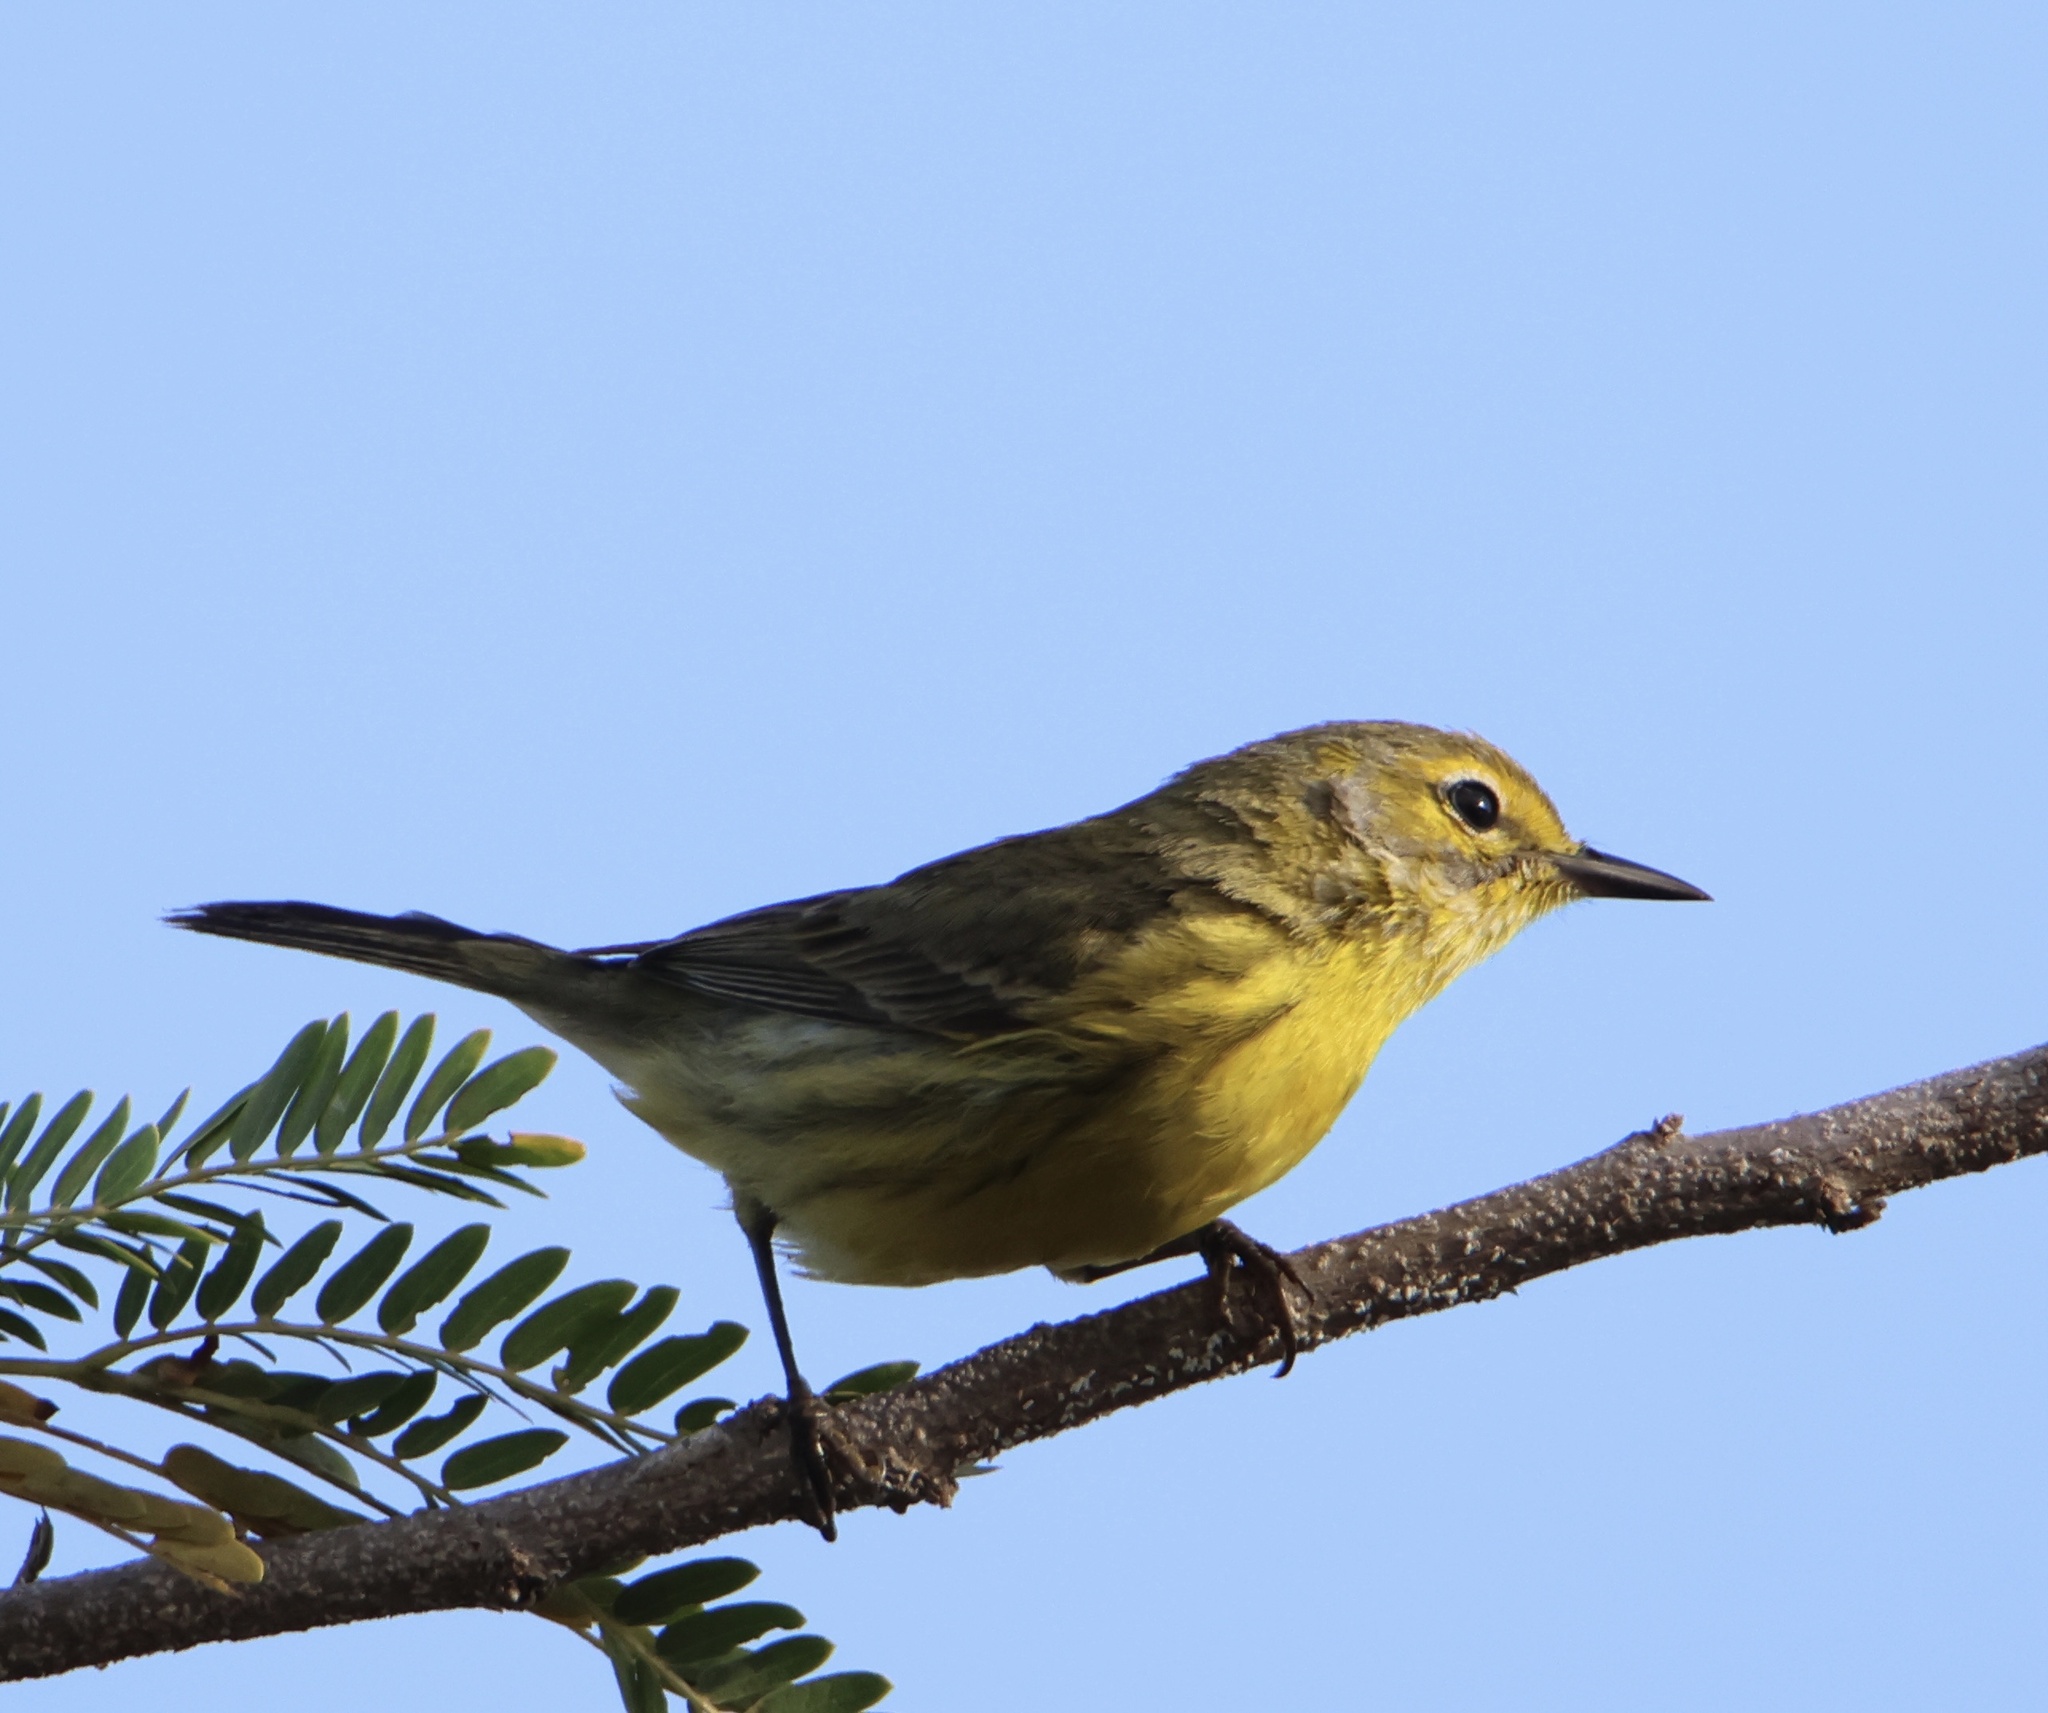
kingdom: Animalia
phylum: Chordata
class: Aves
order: Passeriformes
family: Parulidae
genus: Setophaga
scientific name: Setophaga discolor
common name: Prairie warbler
